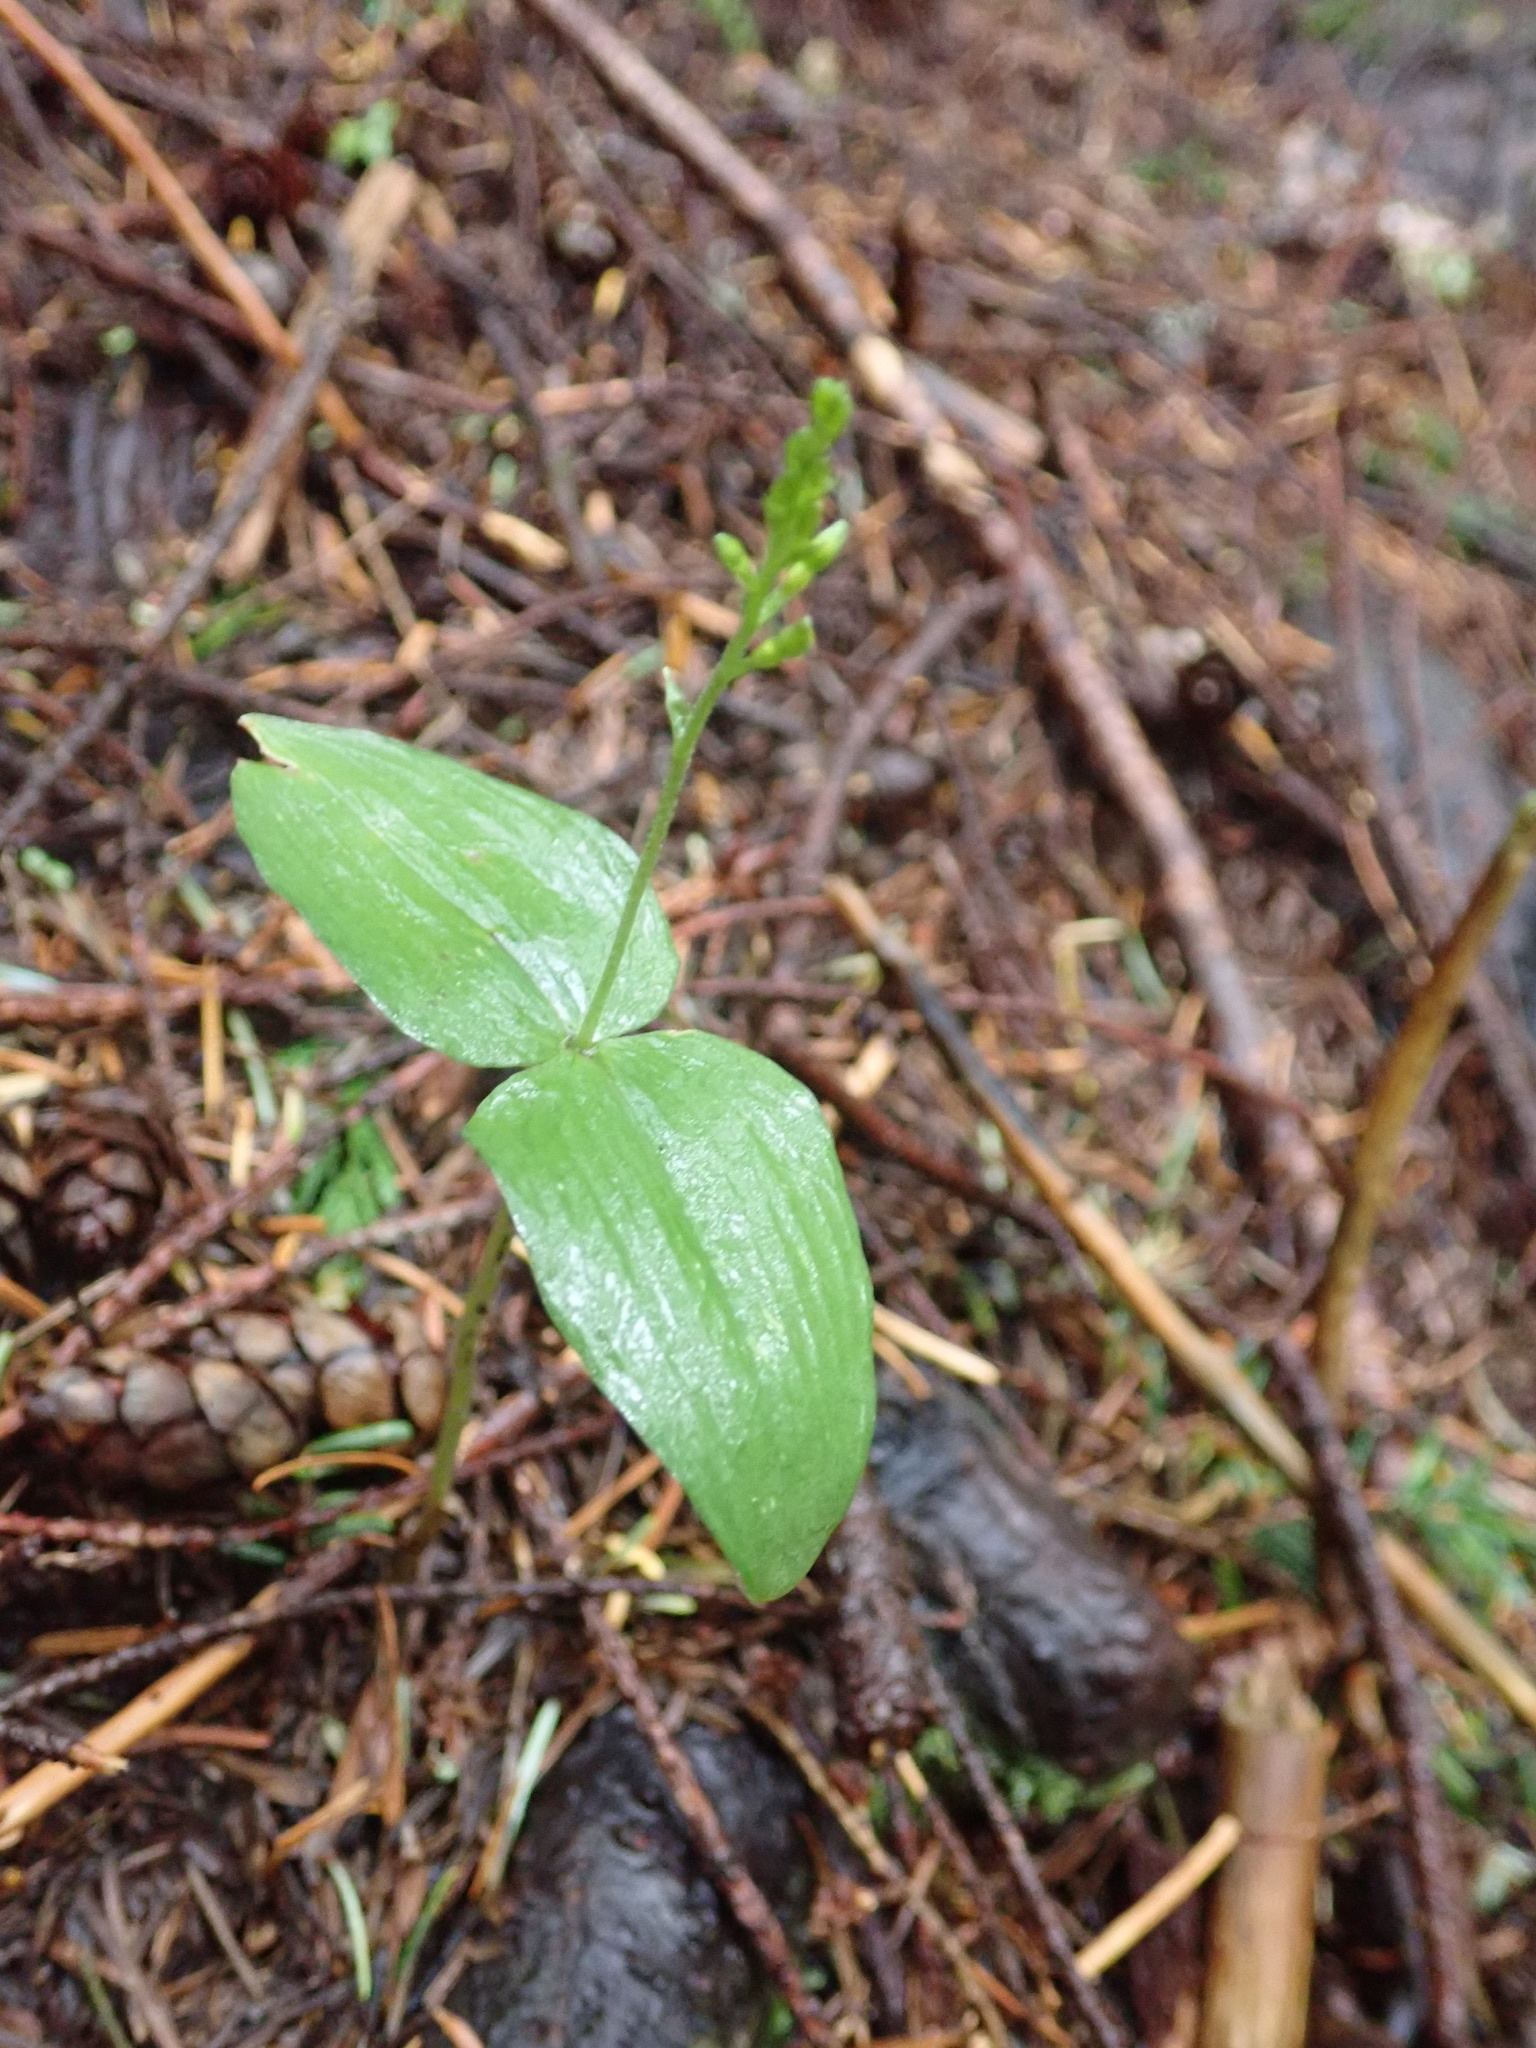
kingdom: Plantae
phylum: Tracheophyta
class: Liliopsida
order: Asparagales
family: Orchidaceae
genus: Neottia
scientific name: Neottia banksiana
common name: Northwestern twayblade
